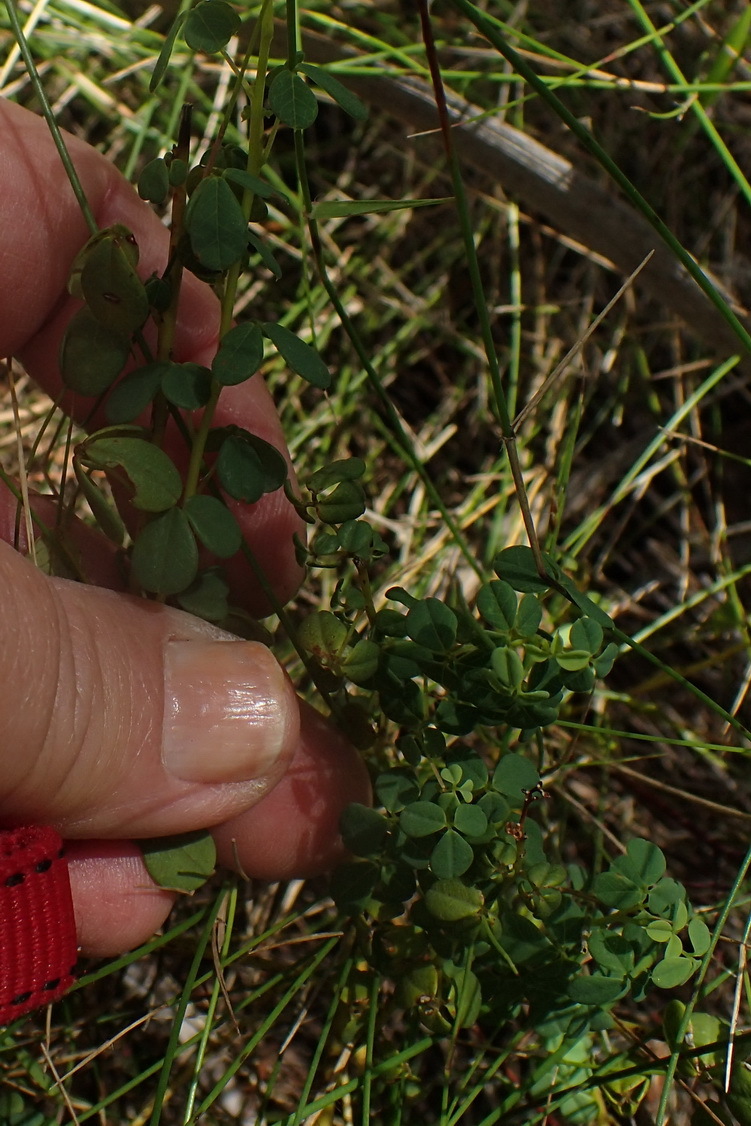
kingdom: Plantae
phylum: Tracheophyta
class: Magnoliopsida
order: Fabales
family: Fabaceae
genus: Hypocalyptus
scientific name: Hypocalyptus oxalidifolius
